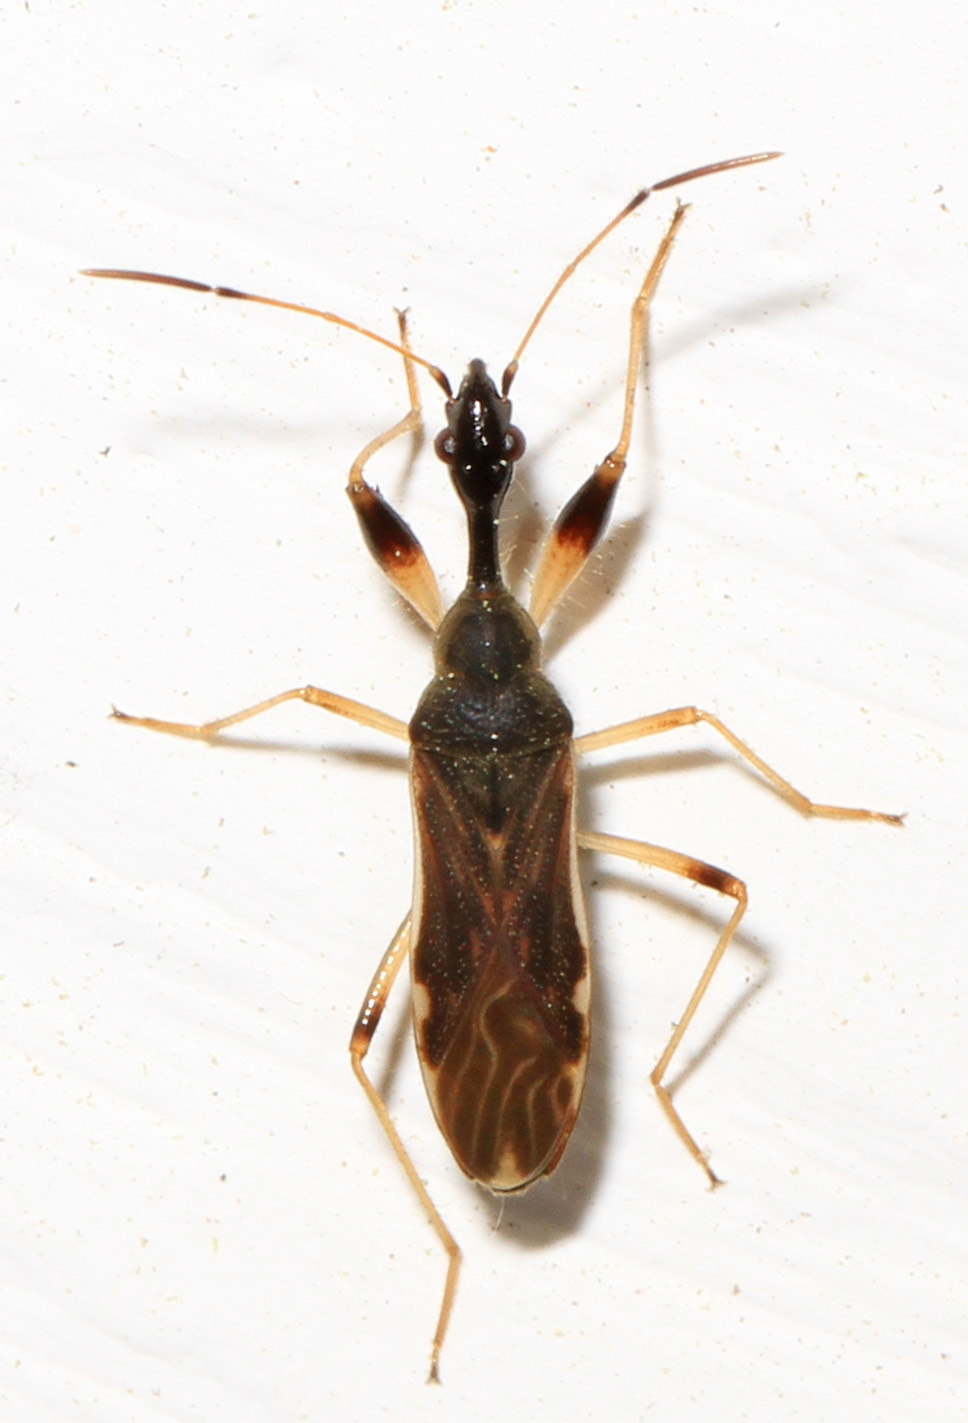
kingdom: Animalia
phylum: Arthropoda
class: Insecta
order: Hemiptera
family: Rhyparochromidae
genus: Myodocha
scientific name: Myodocha serripes
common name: Long-necked seed bug
